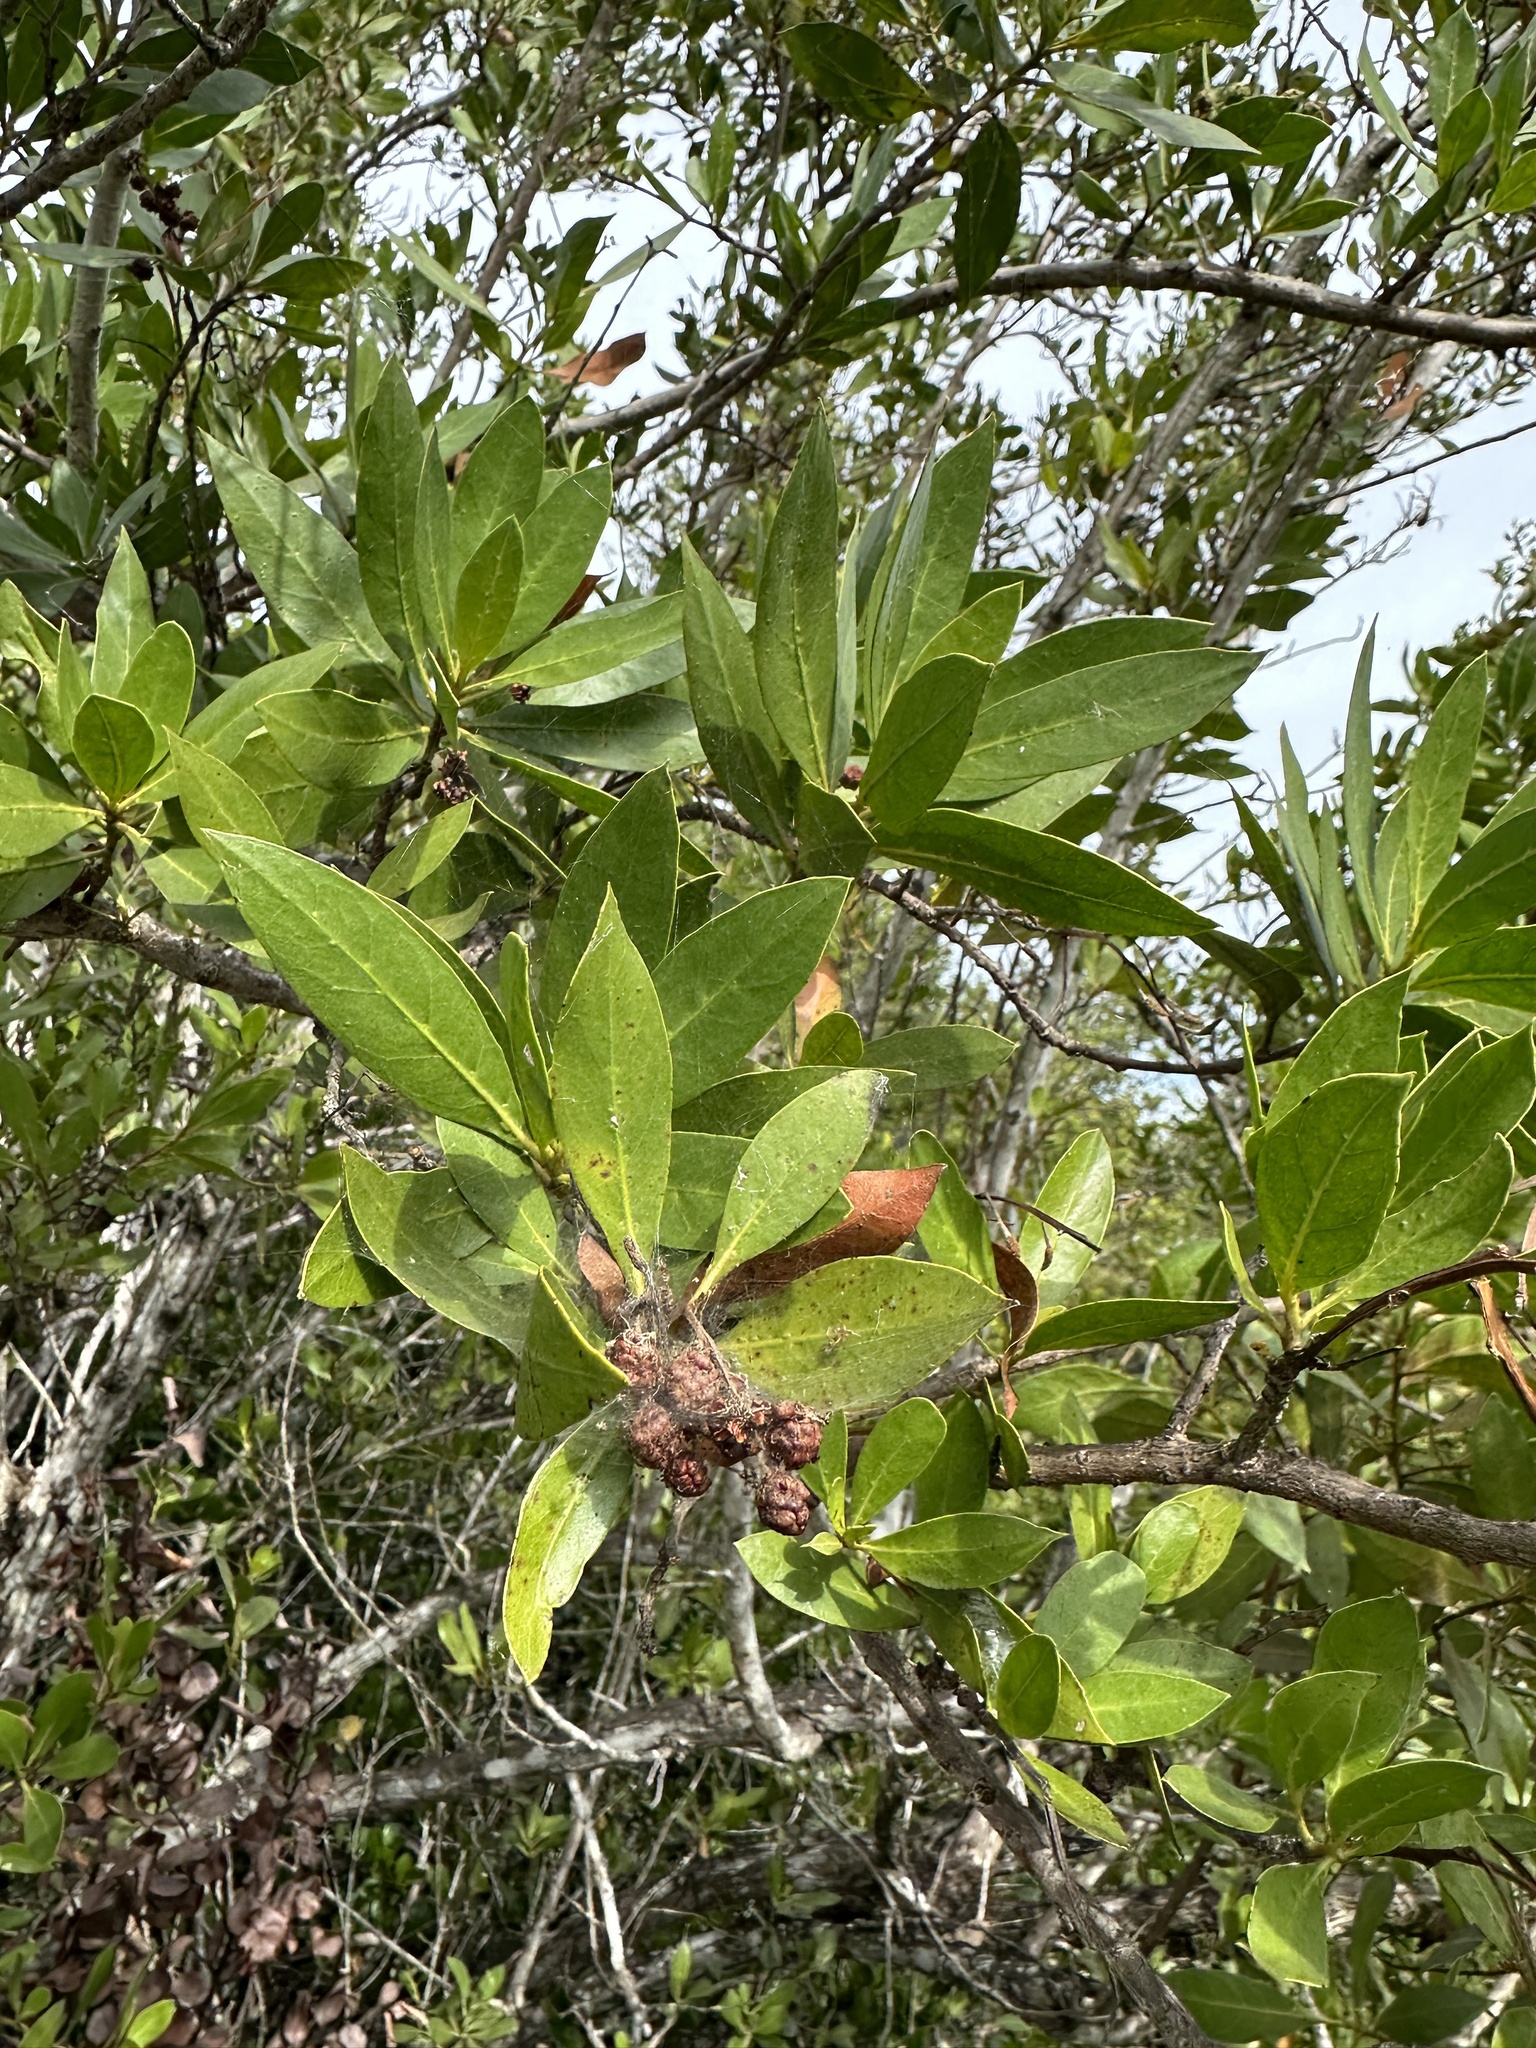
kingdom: Plantae
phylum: Tracheophyta
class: Magnoliopsida
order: Myrtales
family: Combretaceae
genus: Conocarpus
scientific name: Conocarpus erectus
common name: Button mangrove
